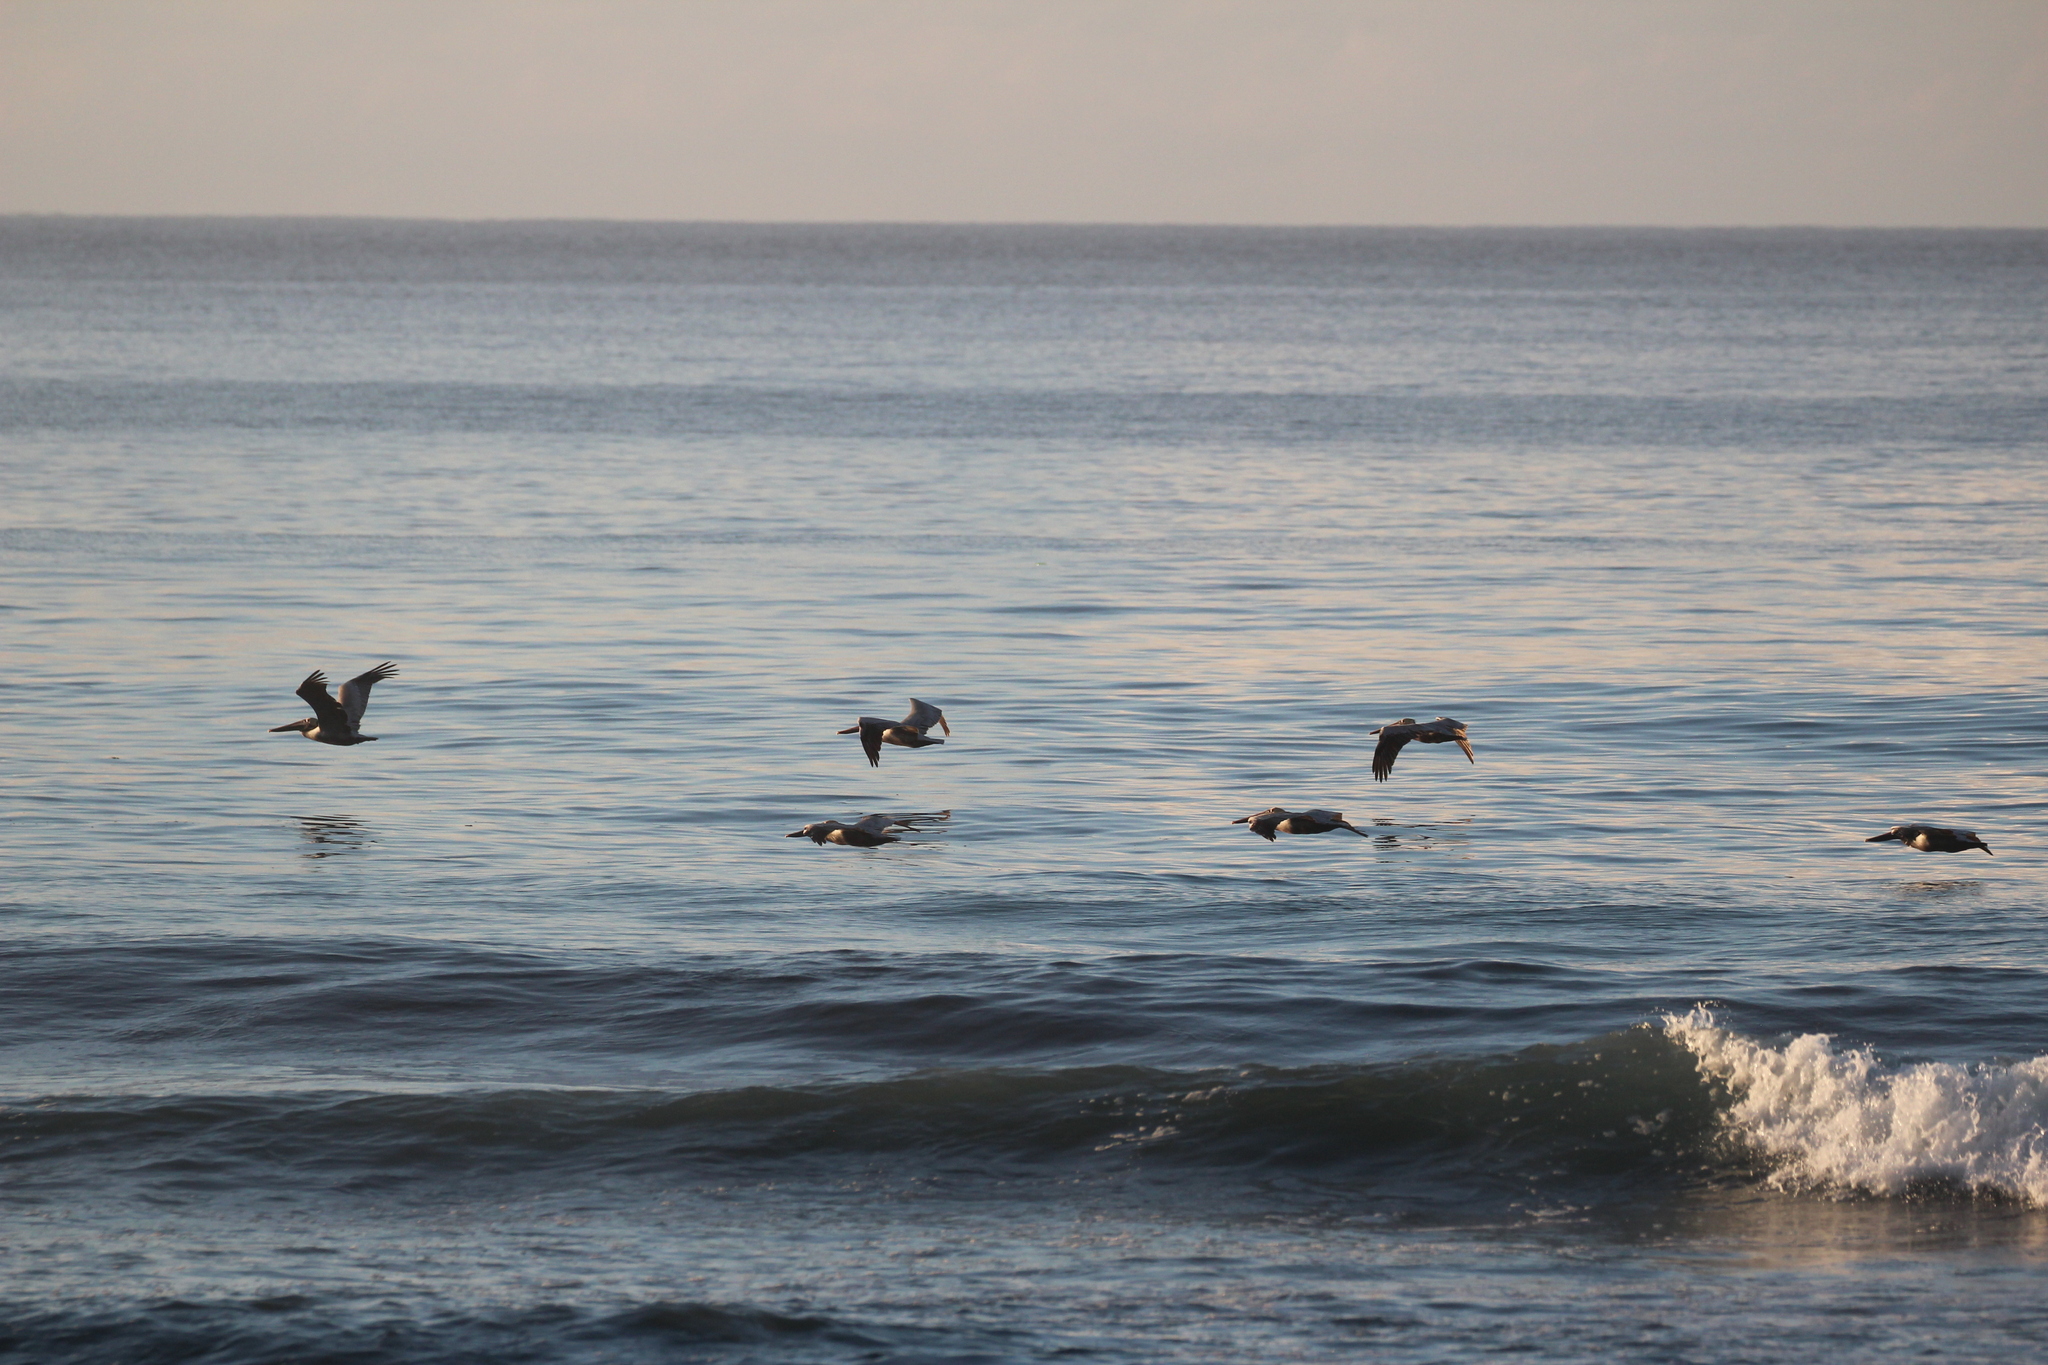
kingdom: Animalia
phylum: Chordata
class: Aves
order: Pelecaniformes
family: Pelecanidae
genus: Pelecanus
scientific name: Pelecanus occidentalis
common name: Brown pelican
